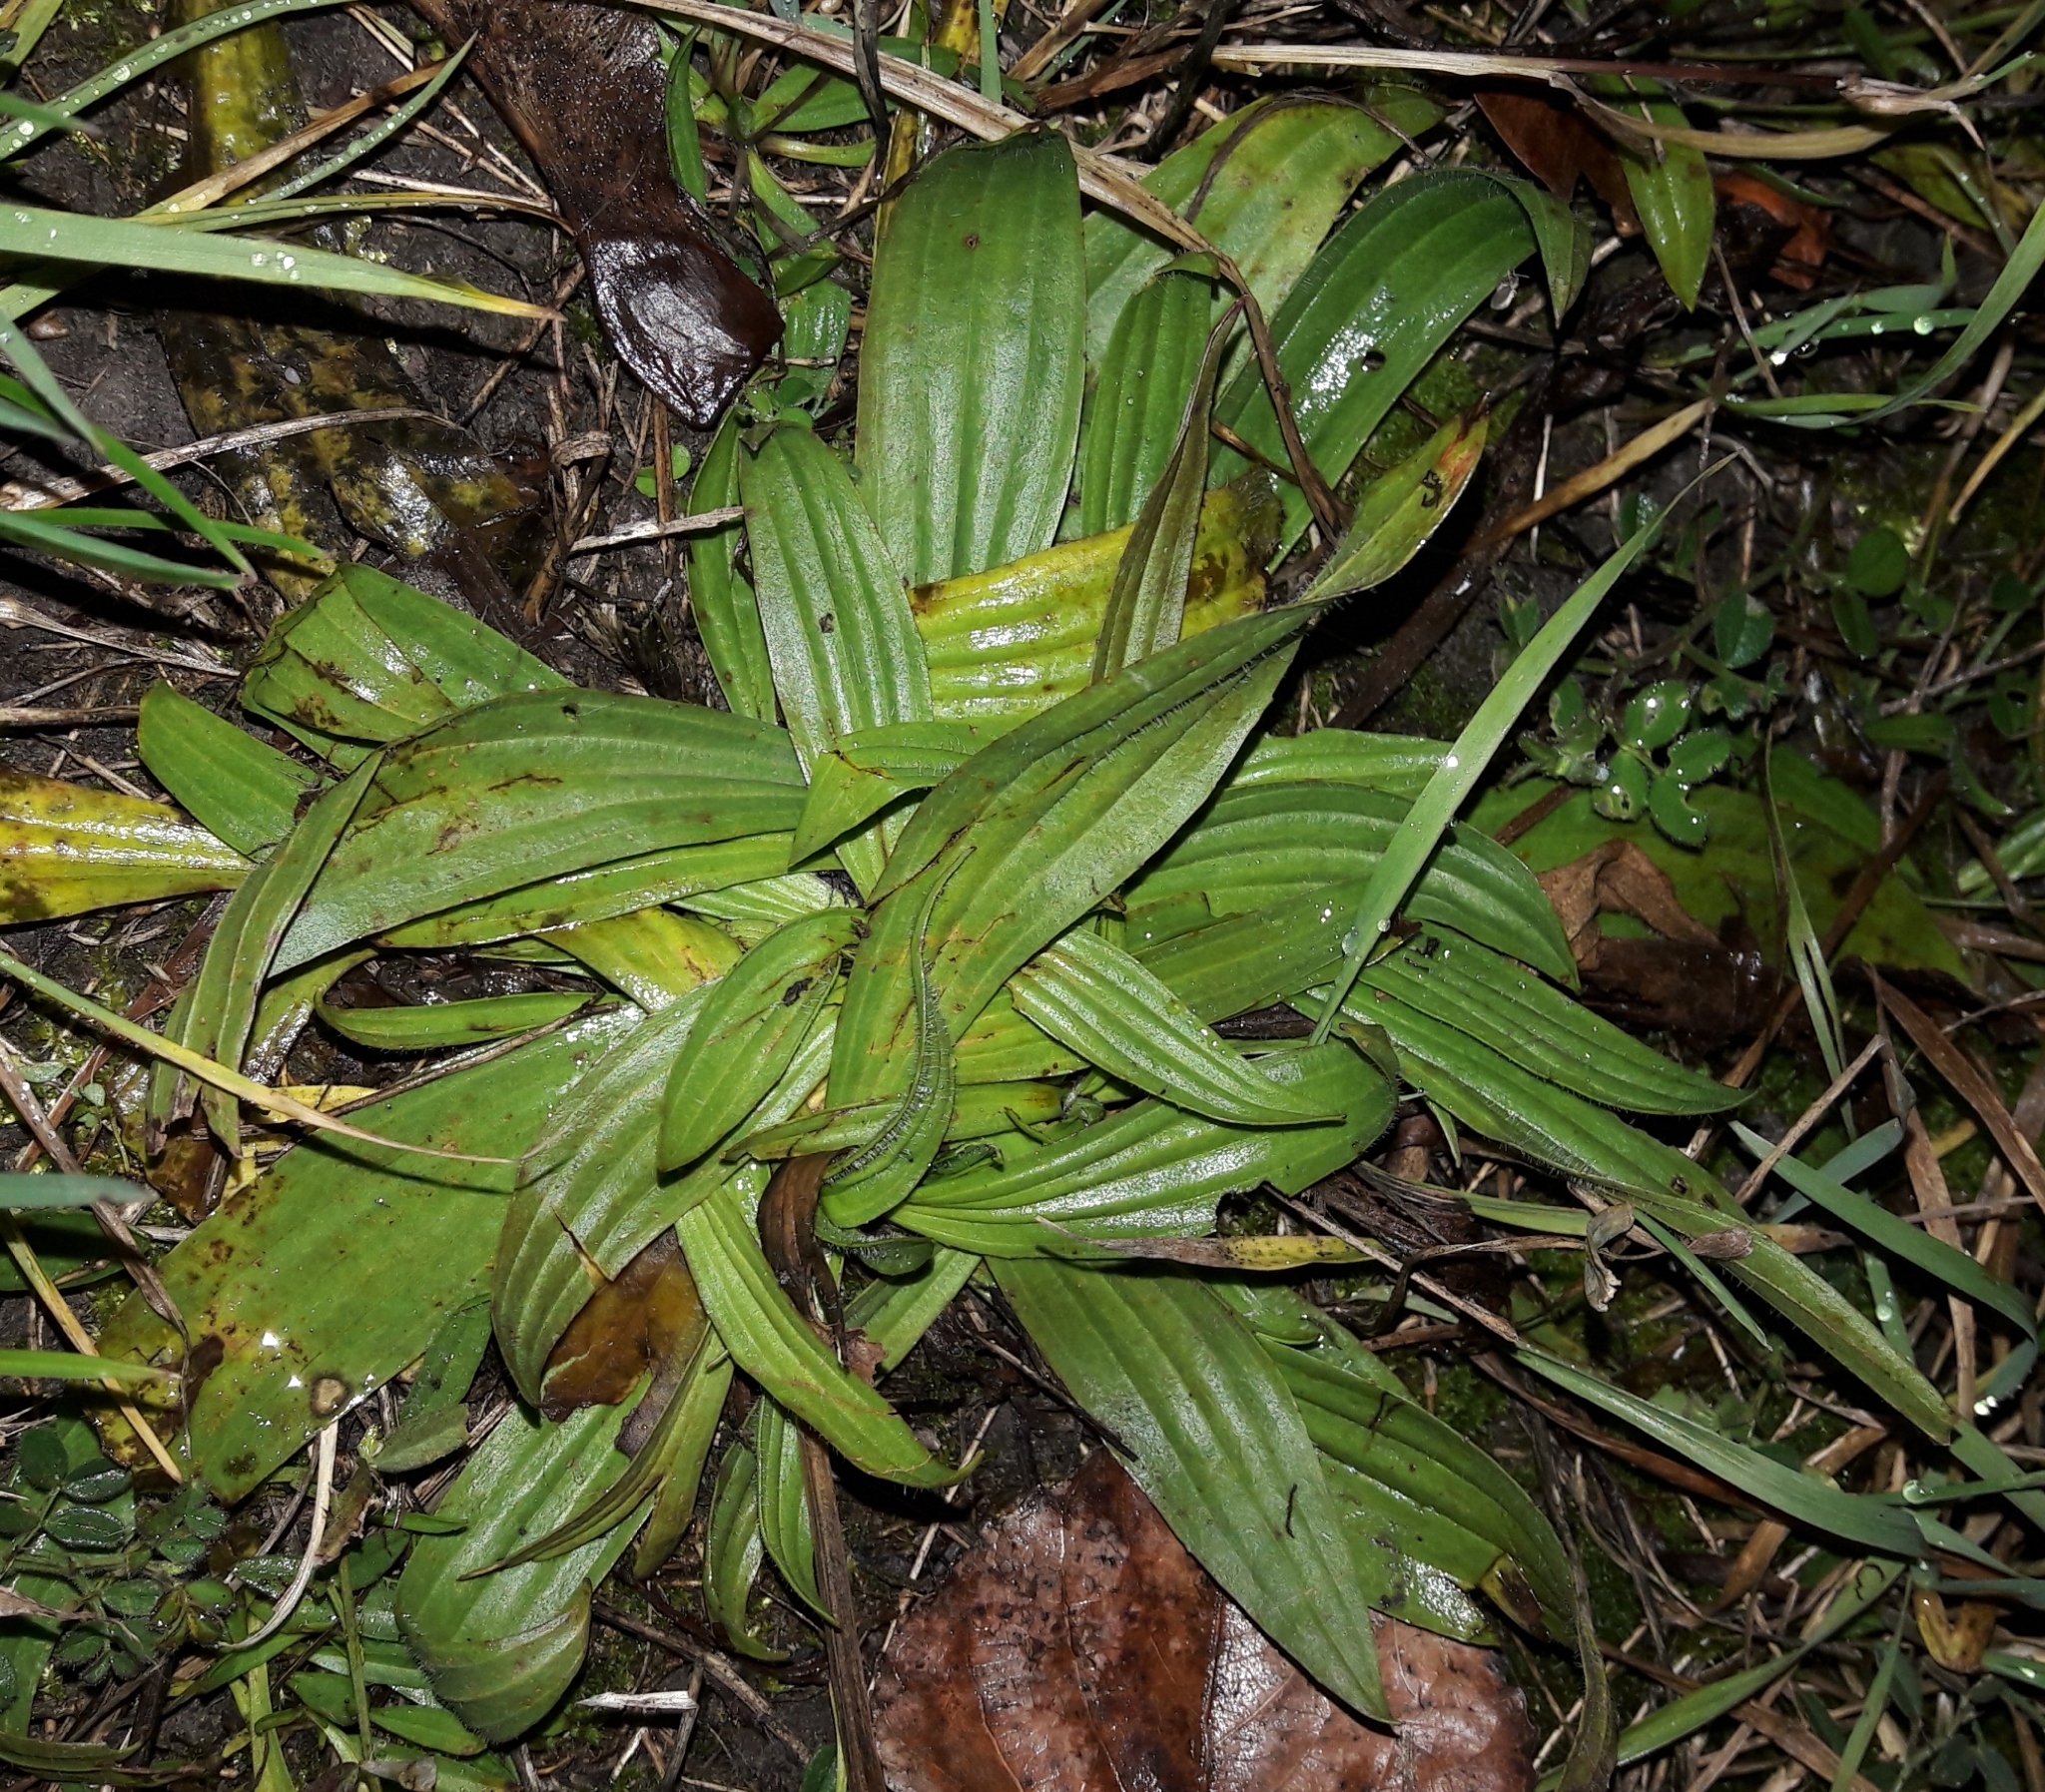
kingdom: Plantae
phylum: Tracheophyta
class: Magnoliopsida
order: Lamiales
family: Plantaginaceae
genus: Plantago
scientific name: Plantago lanceolata
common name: Ribwort plantain
